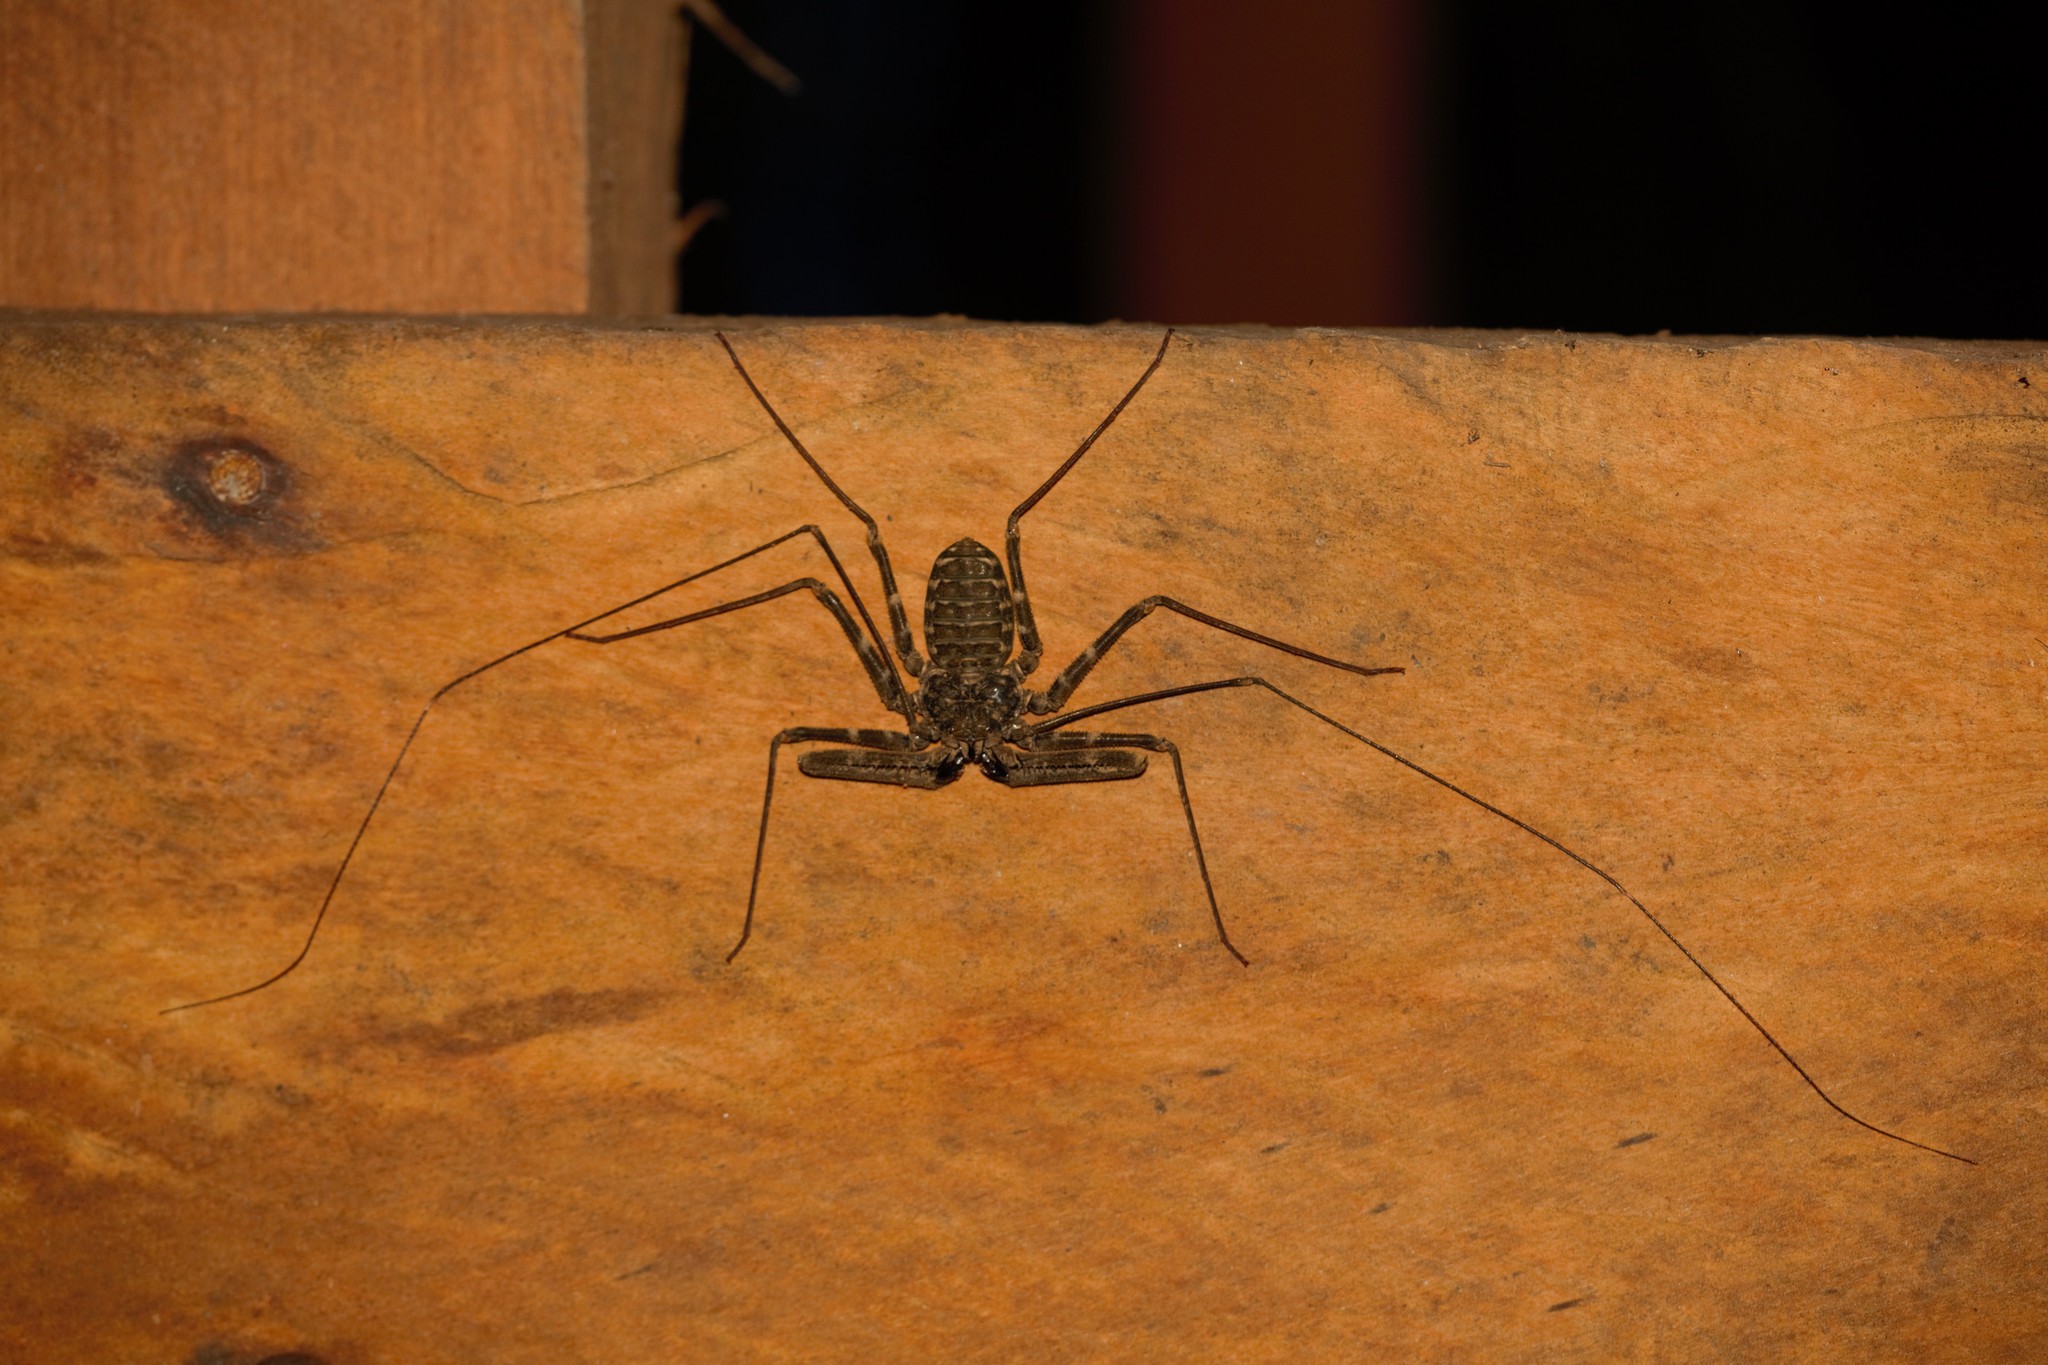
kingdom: Animalia
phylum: Arthropoda
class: Arachnida
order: Amblypygi
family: Phrynichidae
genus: Damon
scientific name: Damon johnstonii
